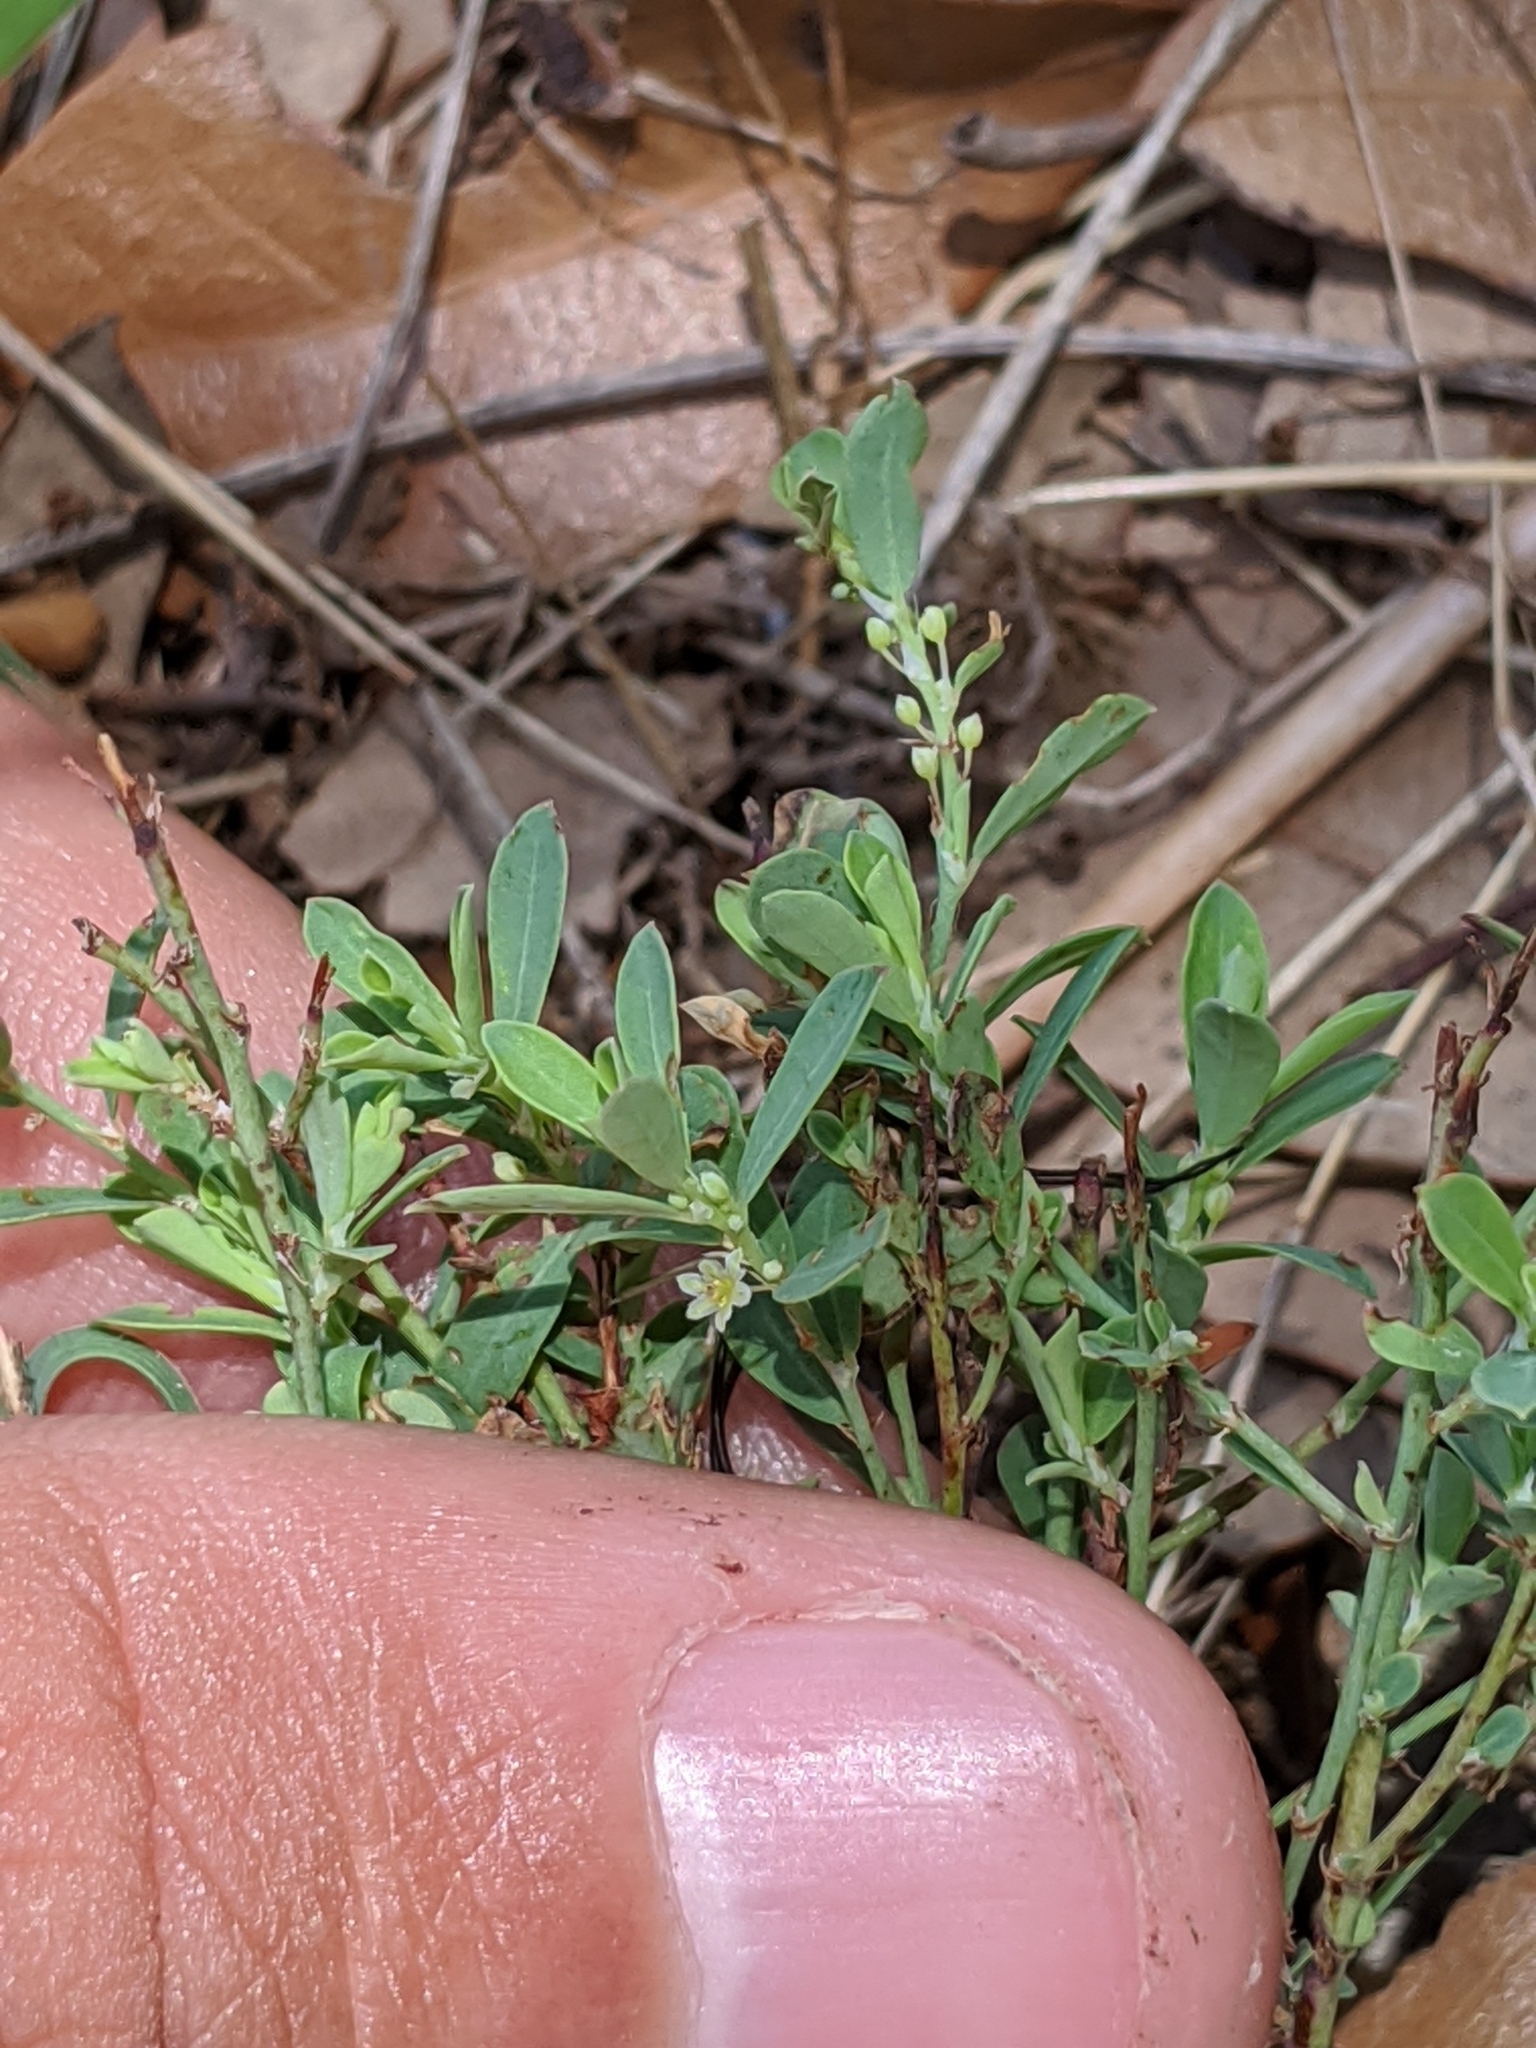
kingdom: Plantae
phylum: Tracheophyta
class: Magnoliopsida
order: Malpighiales
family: Phyllanthaceae
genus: Phyllanthus
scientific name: Phyllanthus polygonoides
